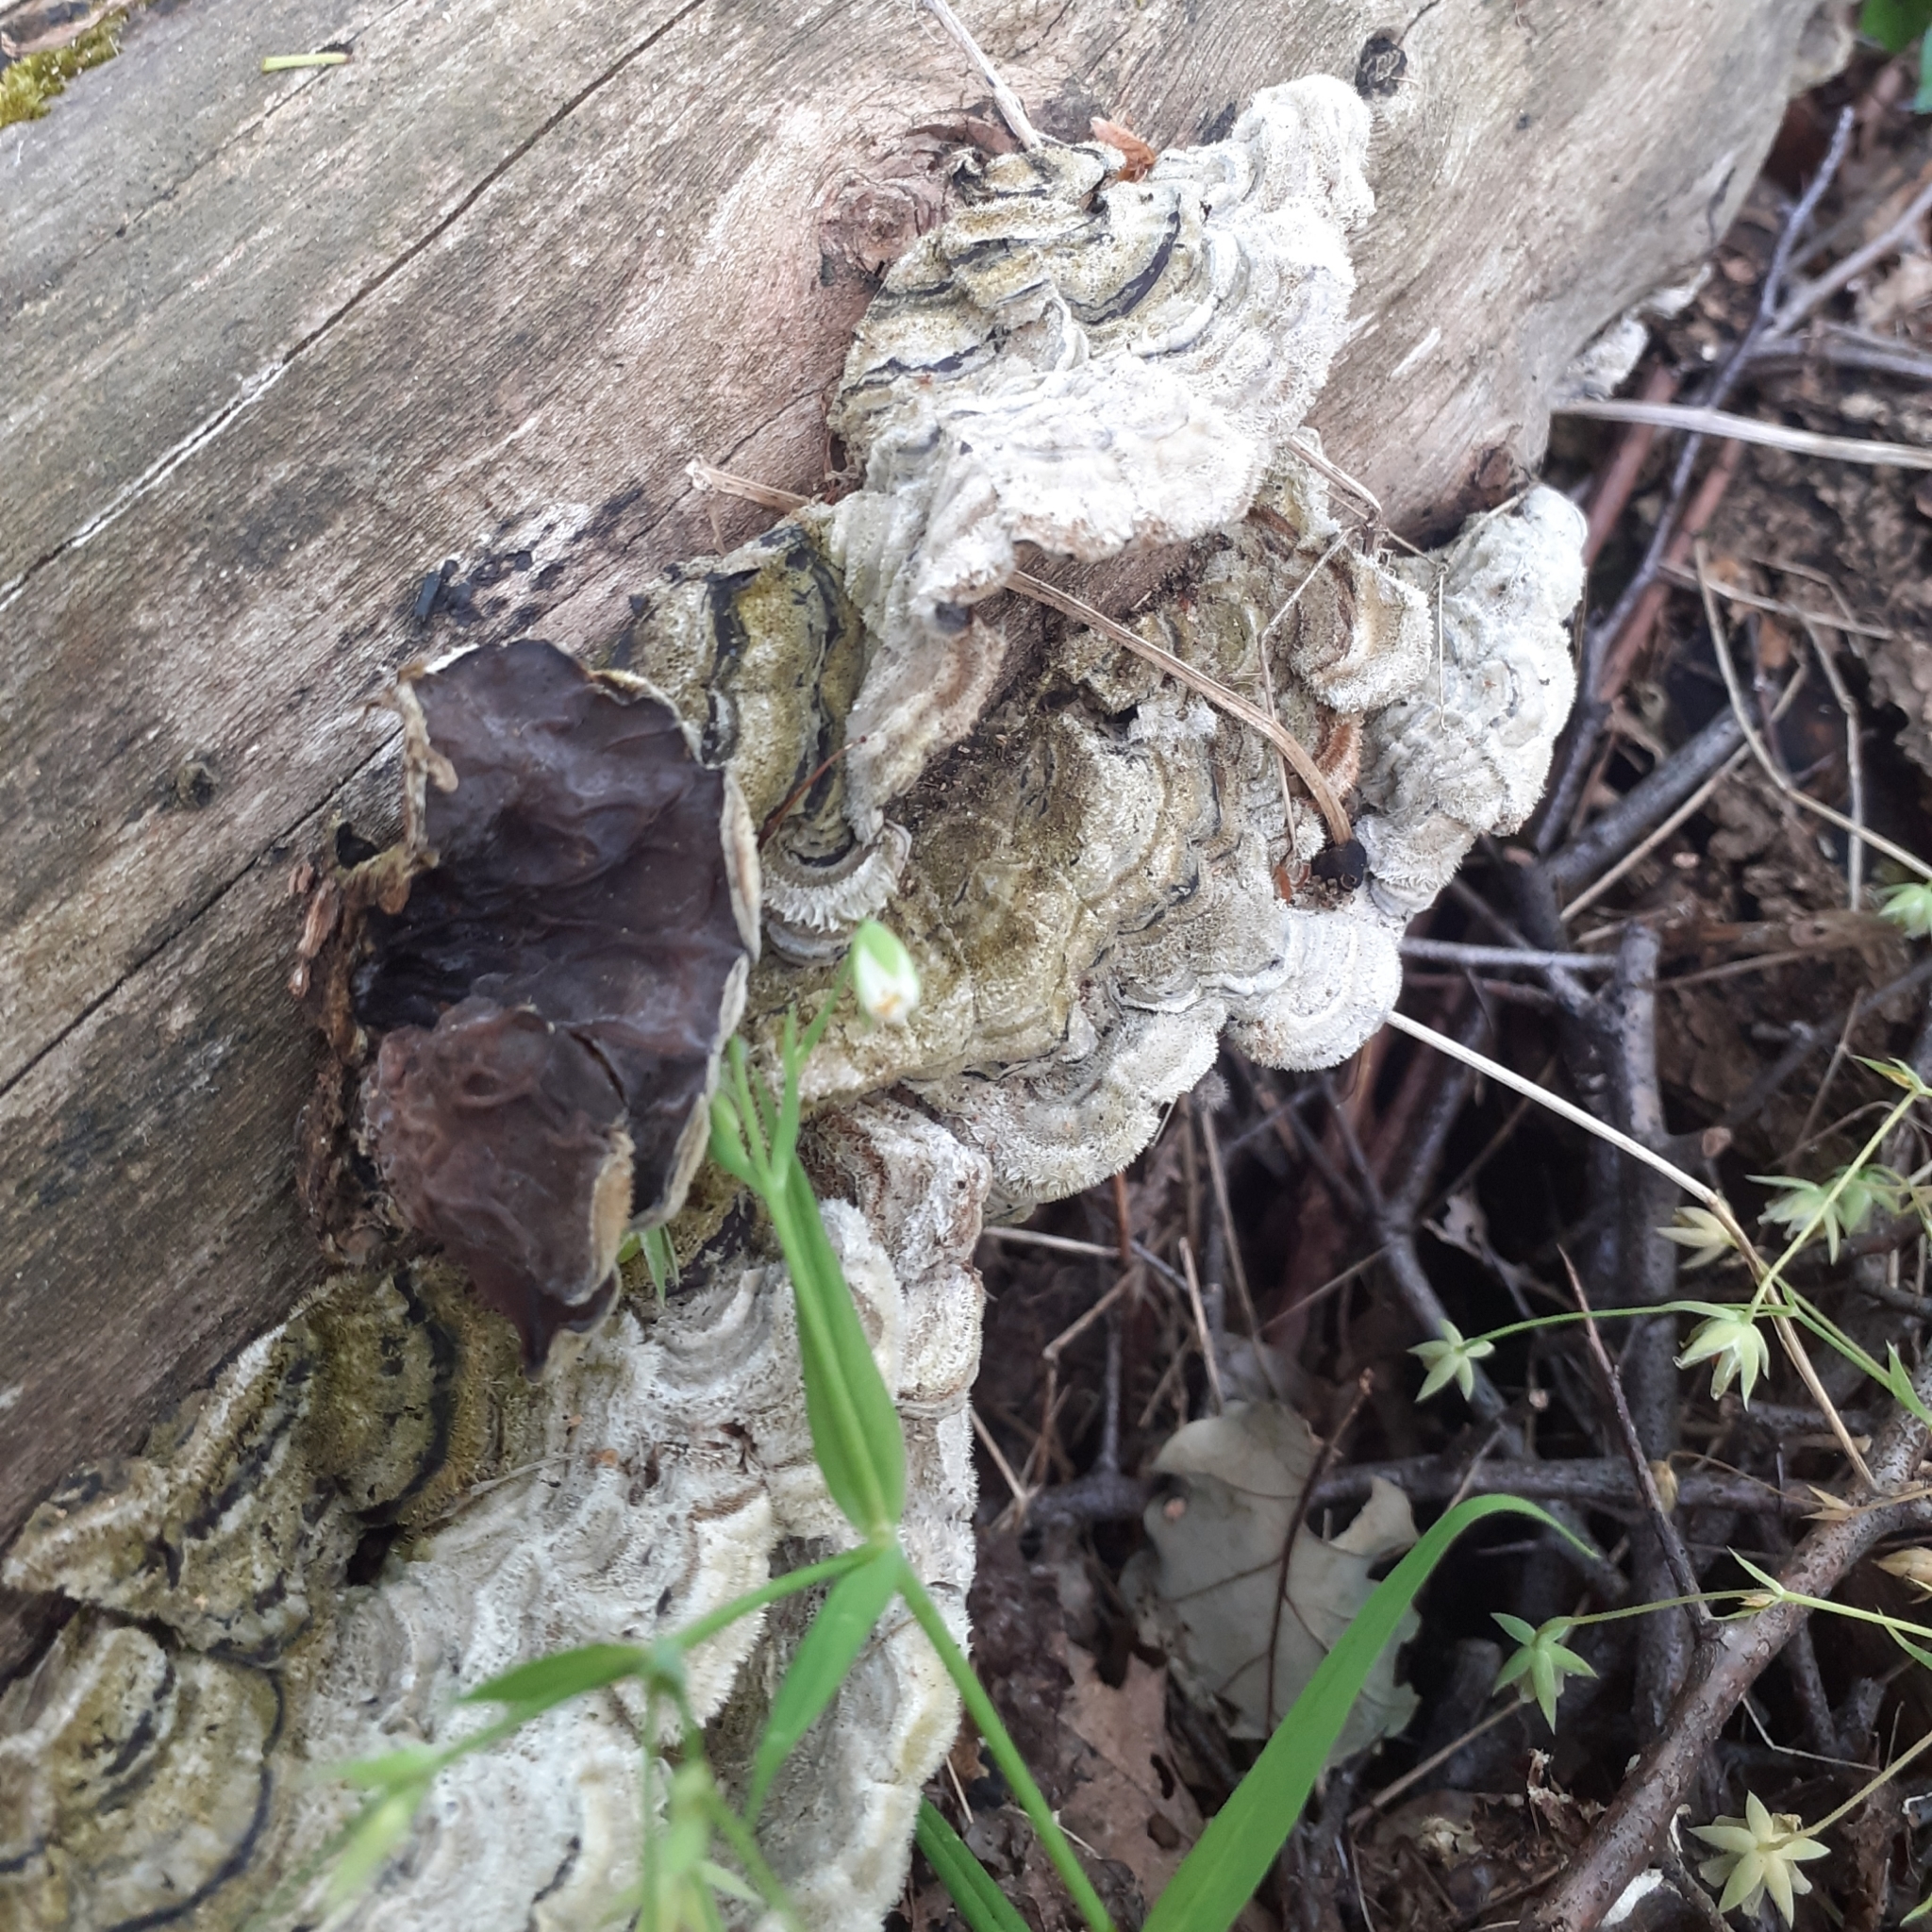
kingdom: Fungi
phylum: Basidiomycota
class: Agaricomycetes
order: Auriculariales
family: Auriculariaceae
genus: Auricularia
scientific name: Auricularia mesenterica
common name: Tripe fungus
